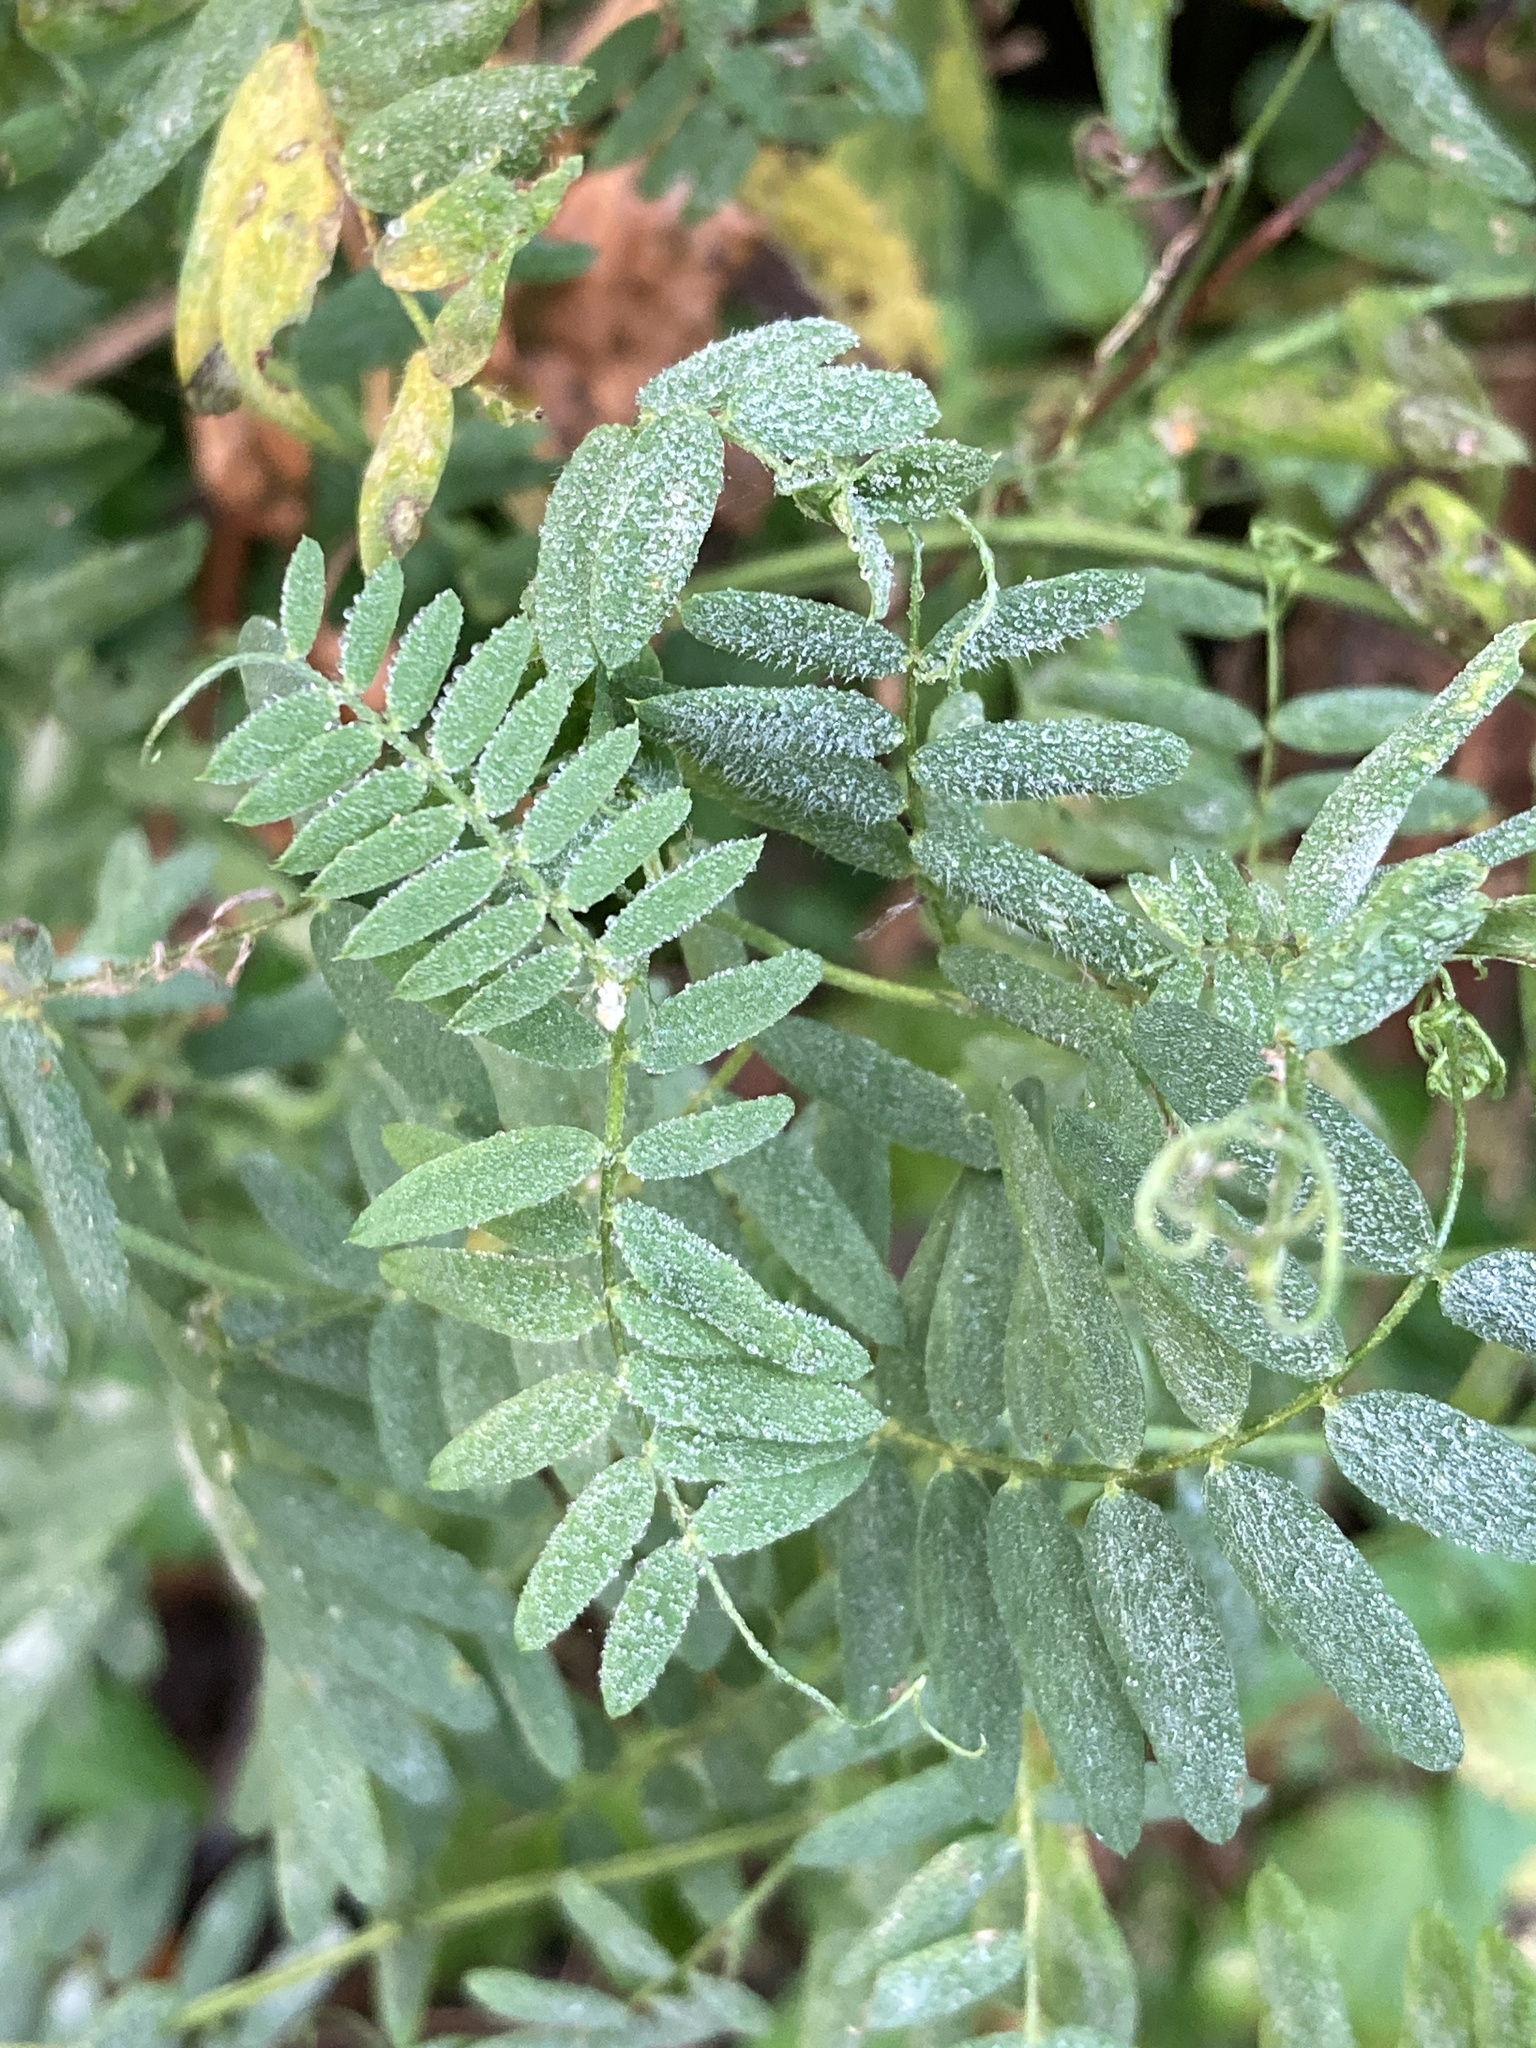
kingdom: Plantae
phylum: Tracheophyta
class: Magnoliopsida
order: Fabales
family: Fabaceae
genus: Vicia
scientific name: Vicia cracca
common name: Bird vetch
